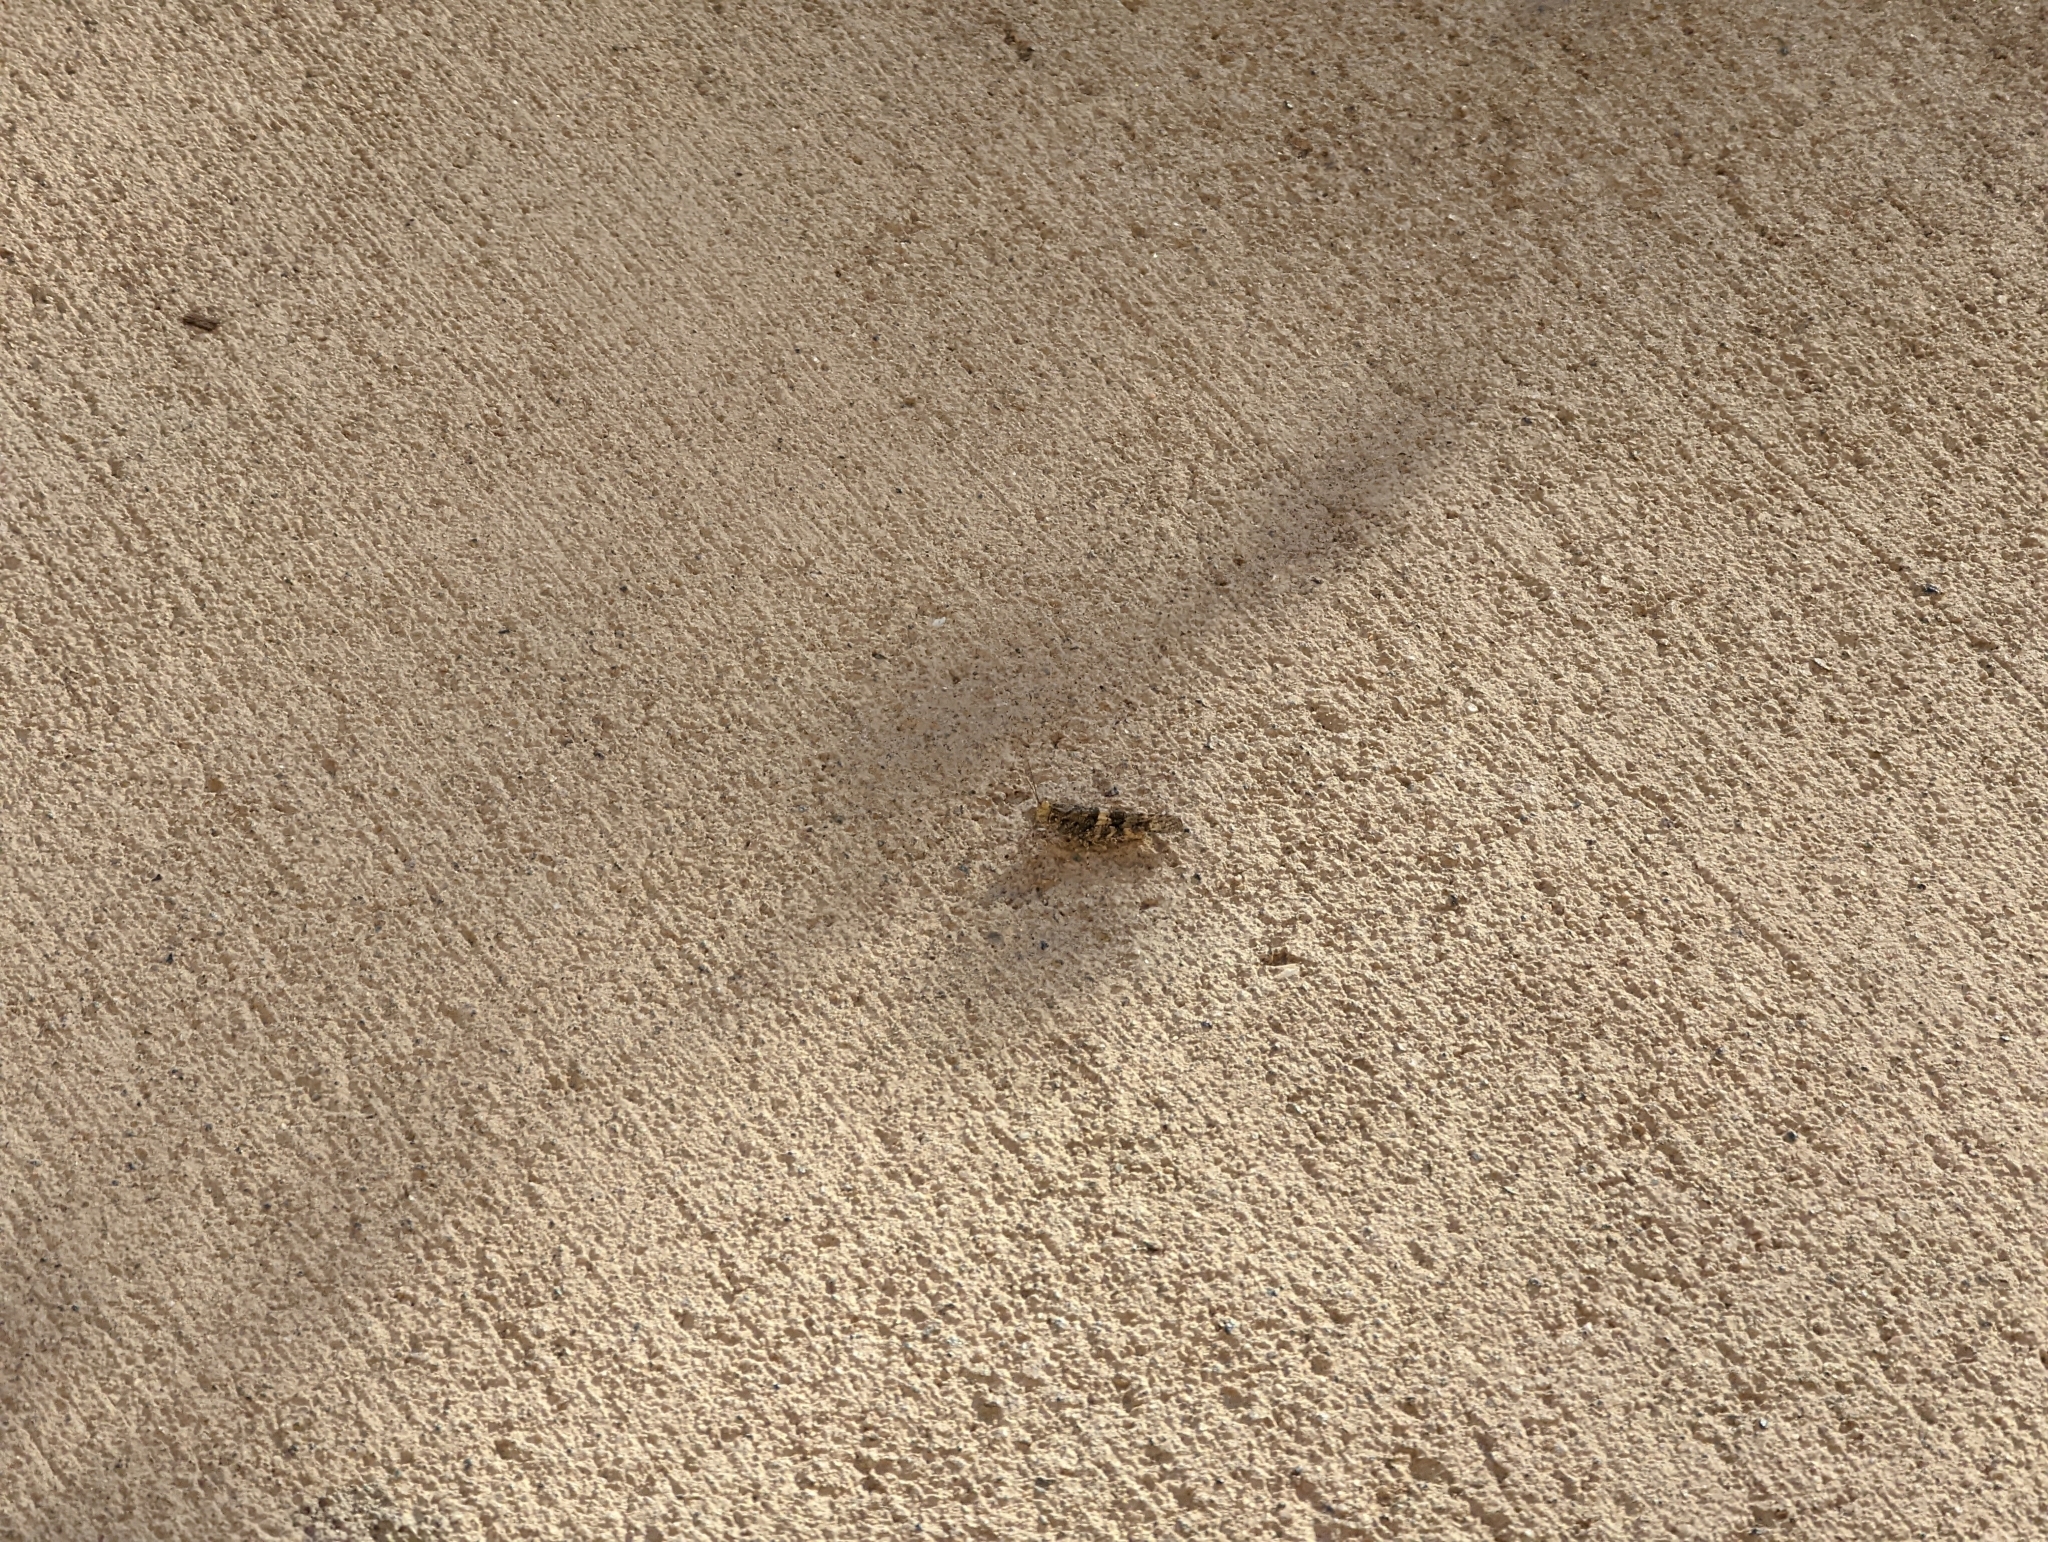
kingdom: Animalia
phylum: Arthropoda
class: Insecta
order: Orthoptera
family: Acrididae
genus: Trimerotropis
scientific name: Trimerotropis pallidipennis
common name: Pallid-winged grasshopper
